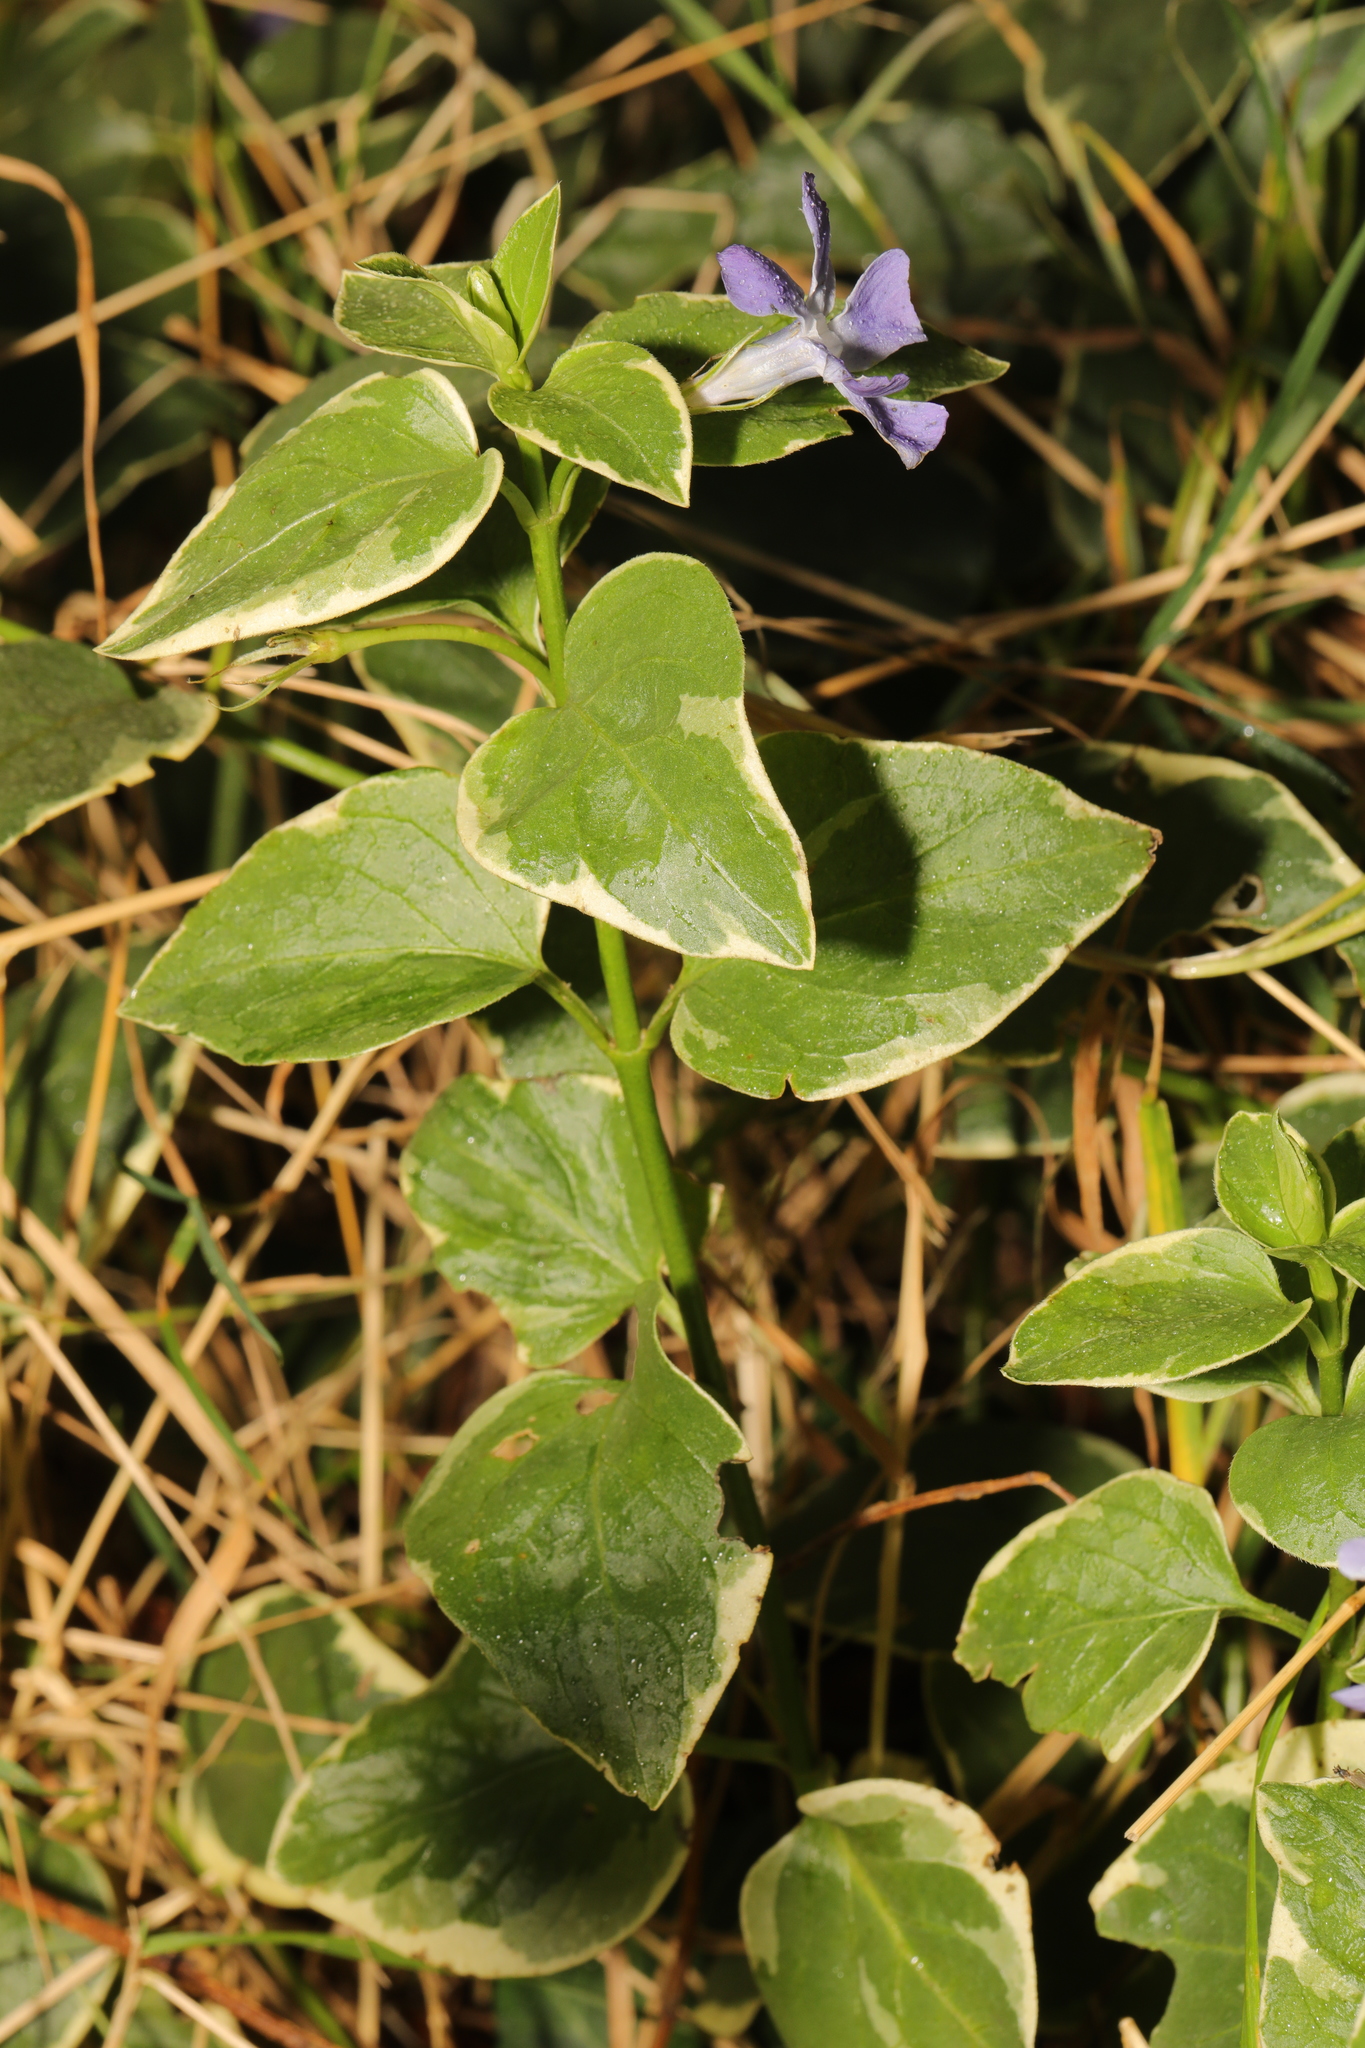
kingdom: Plantae
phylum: Tracheophyta
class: Magnoliopsida
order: Gentianales
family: Apocynaceae
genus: Vinca
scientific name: Vinca major
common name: Greater periwinkle
